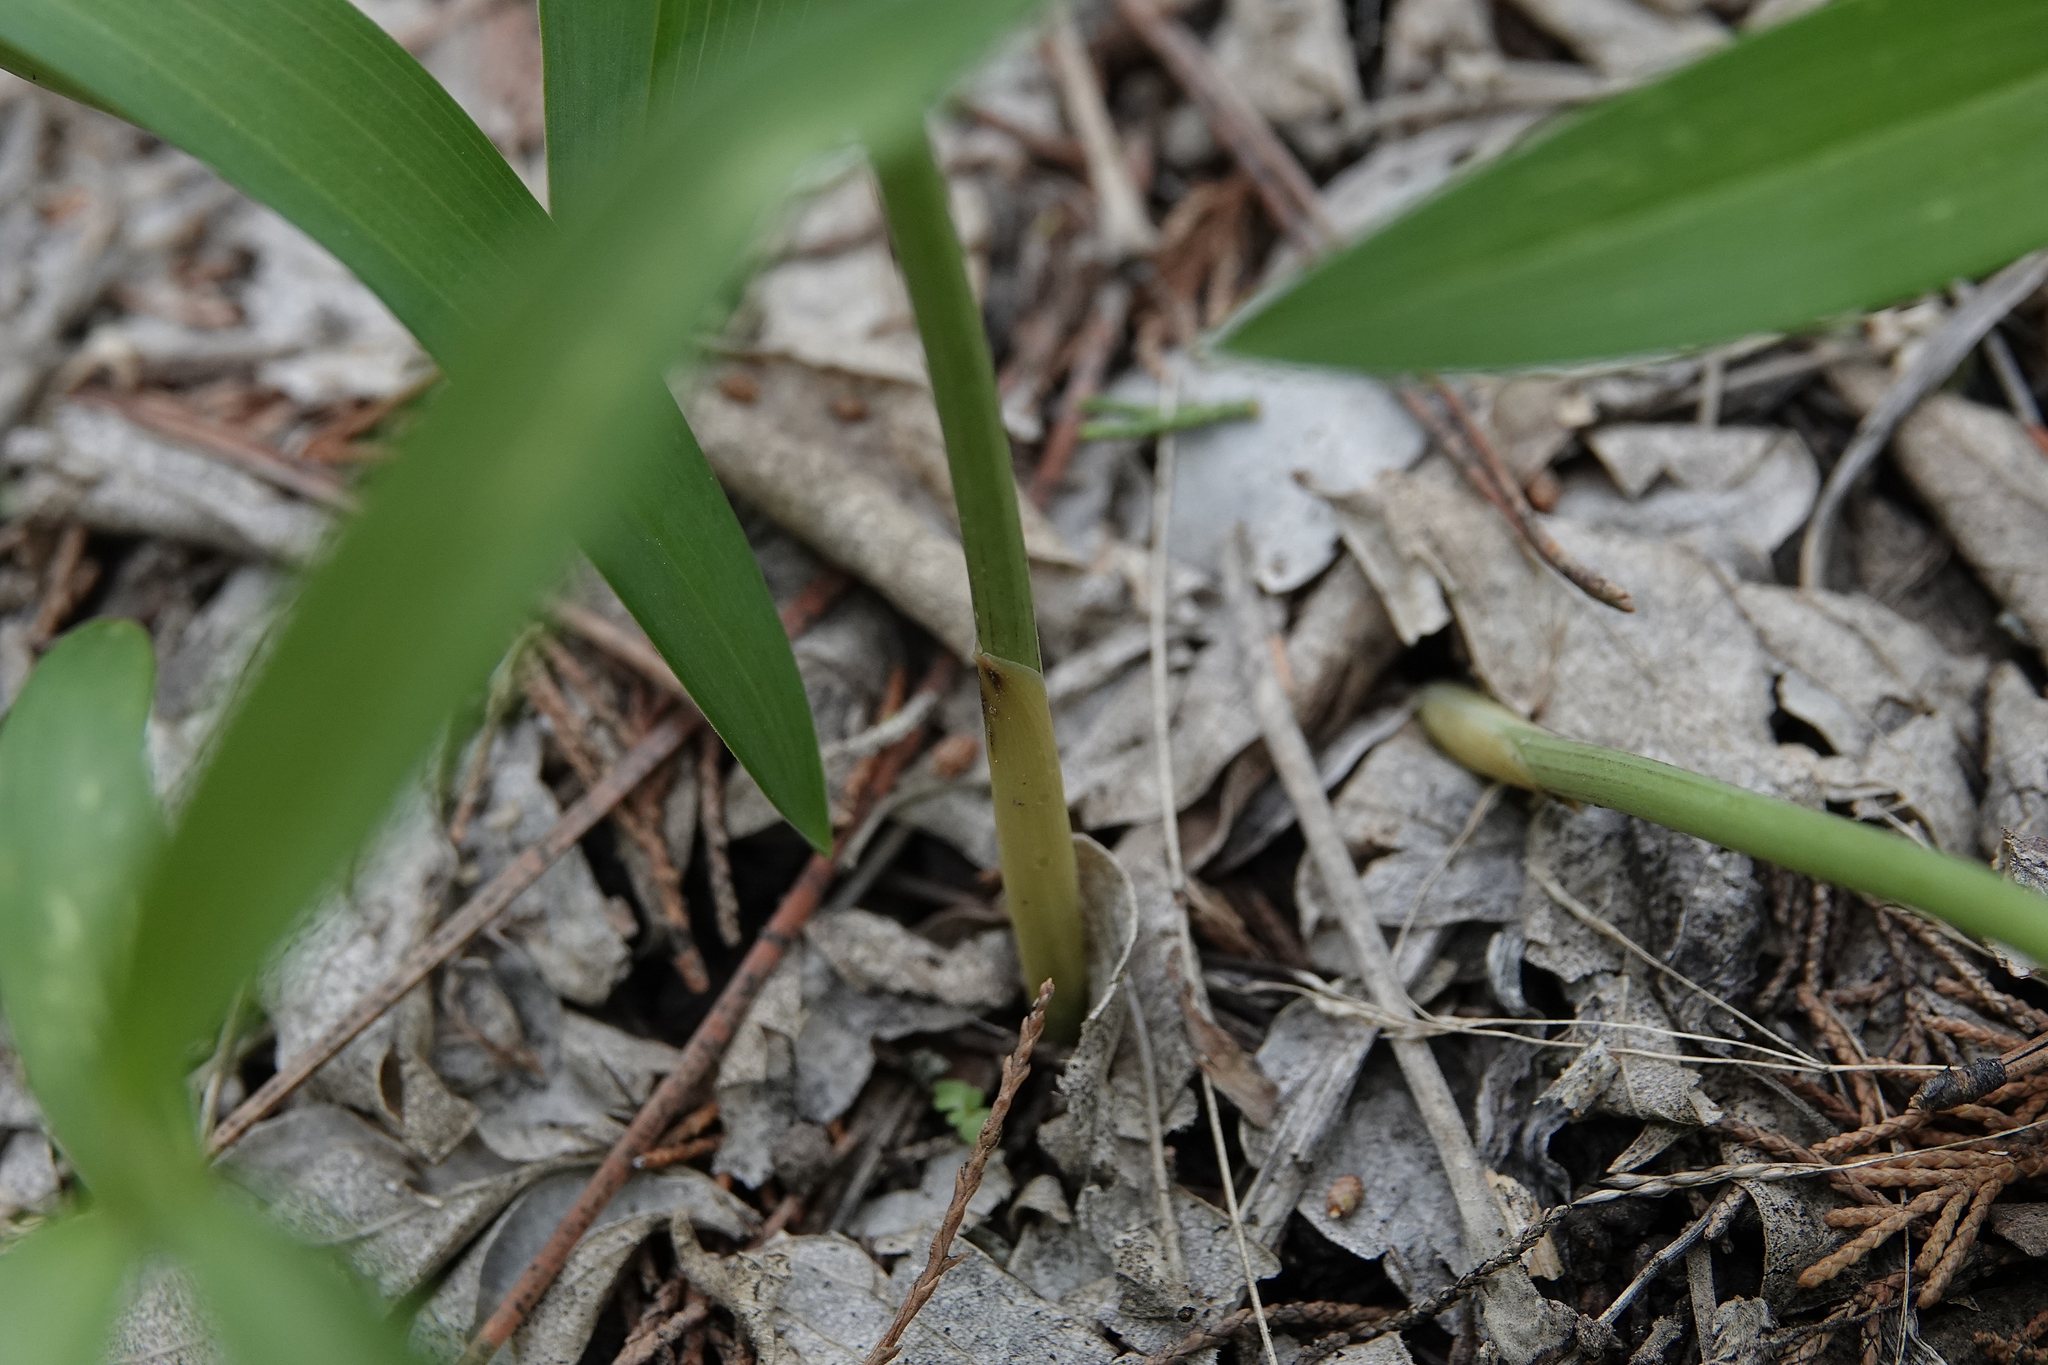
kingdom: Plantae
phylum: Tracheophyta
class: Liliopsida
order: Asparagales
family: Asparagaceae
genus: Maianthemum
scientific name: Maianthemum stellatum
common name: Little false solomon's seal
